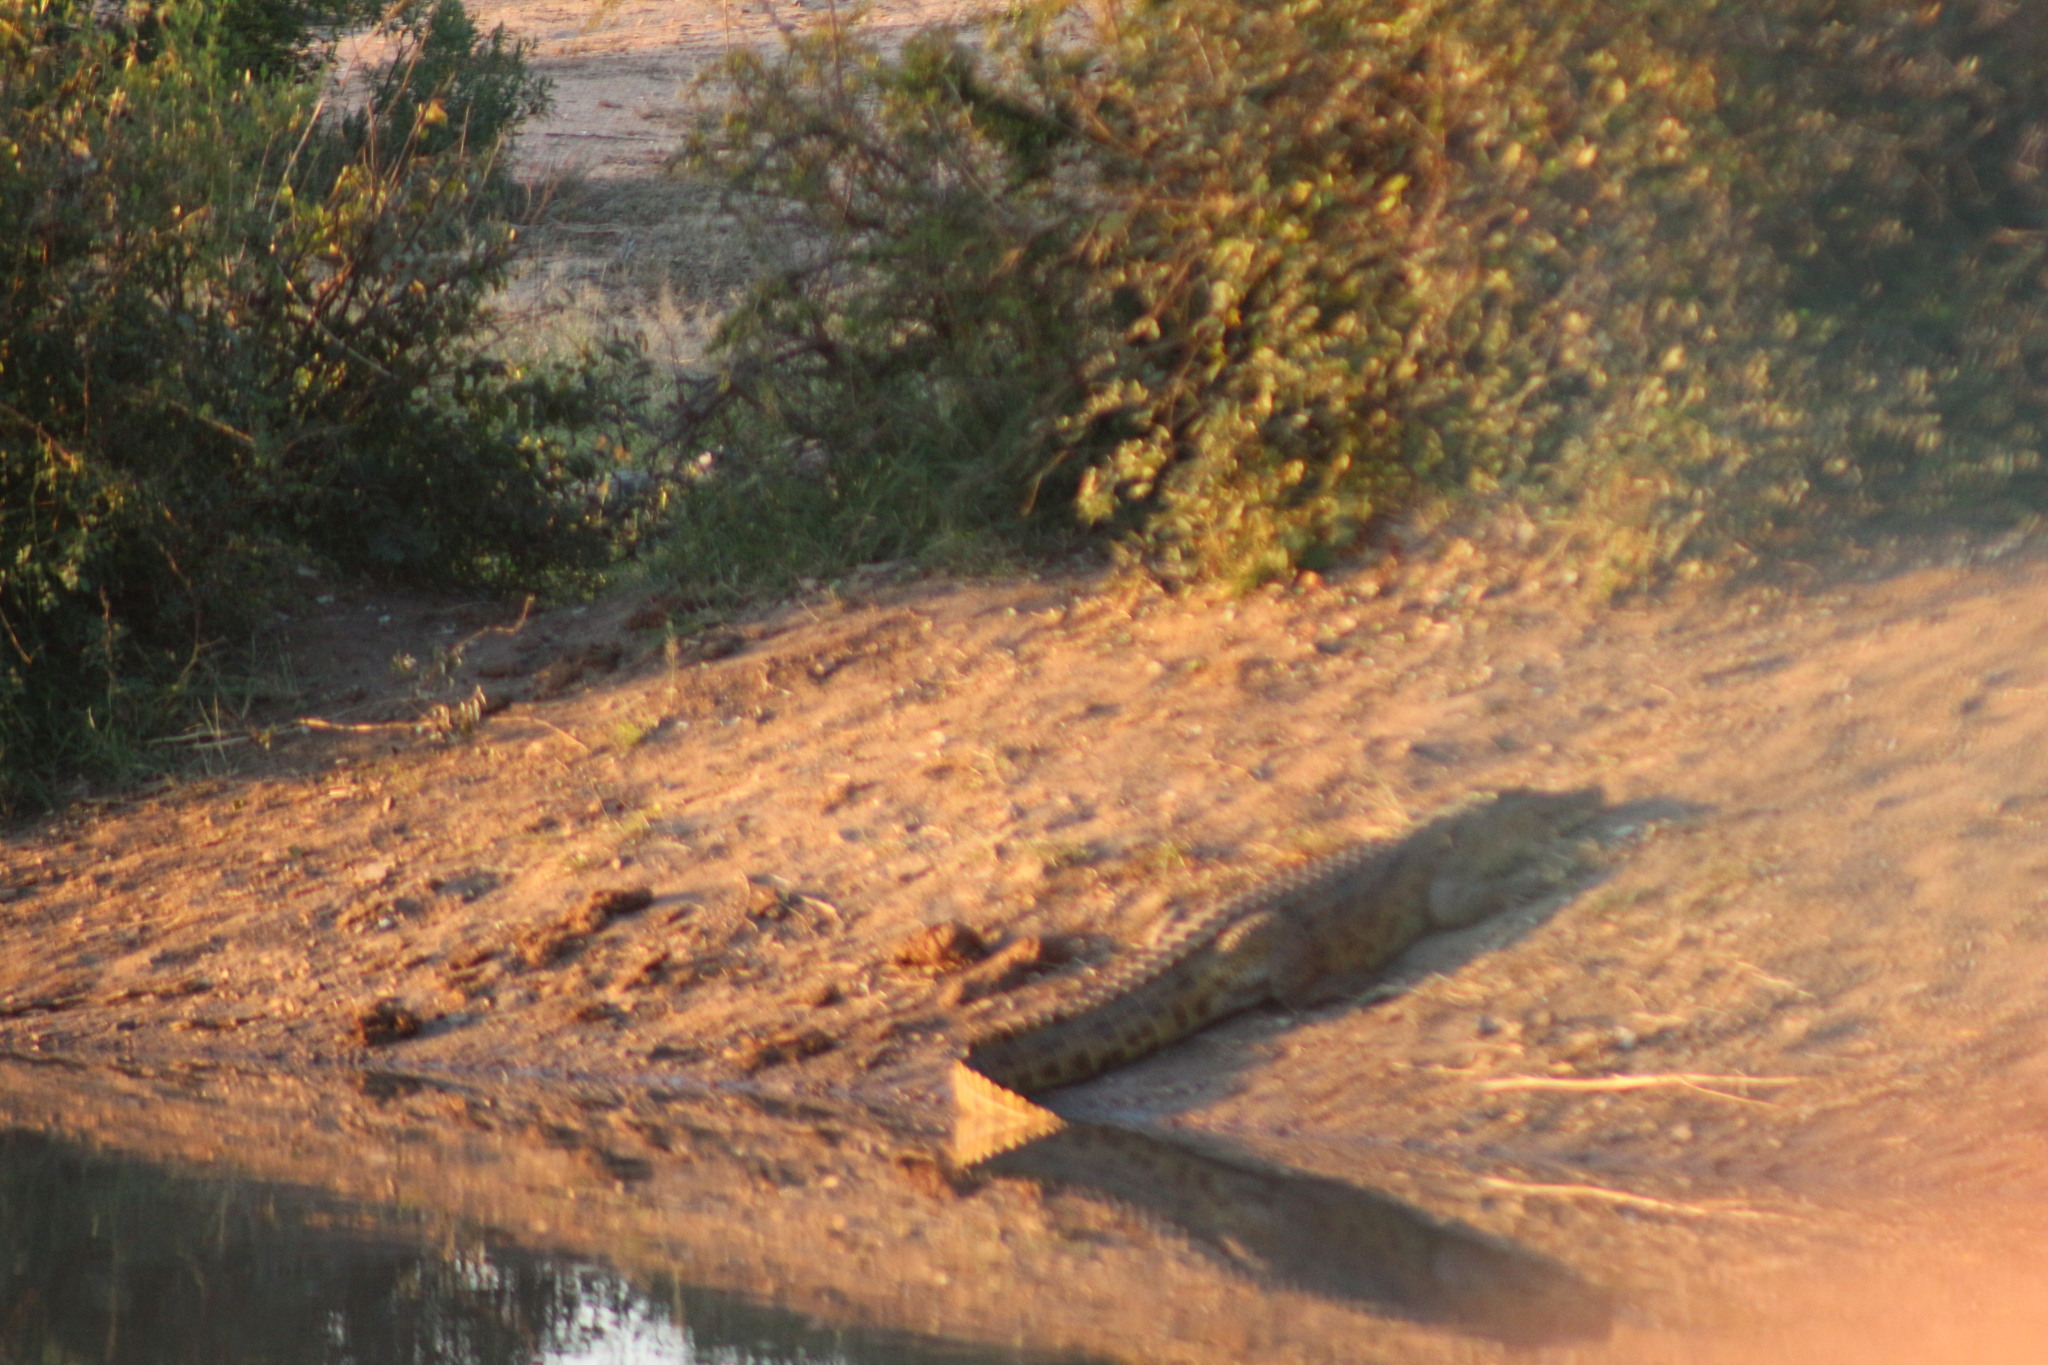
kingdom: Animalia
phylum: Chordata
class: Crocodylia
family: Crocodylidae
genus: Crocodylus
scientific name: Crocodylus niloticus
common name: Nile crocodile
